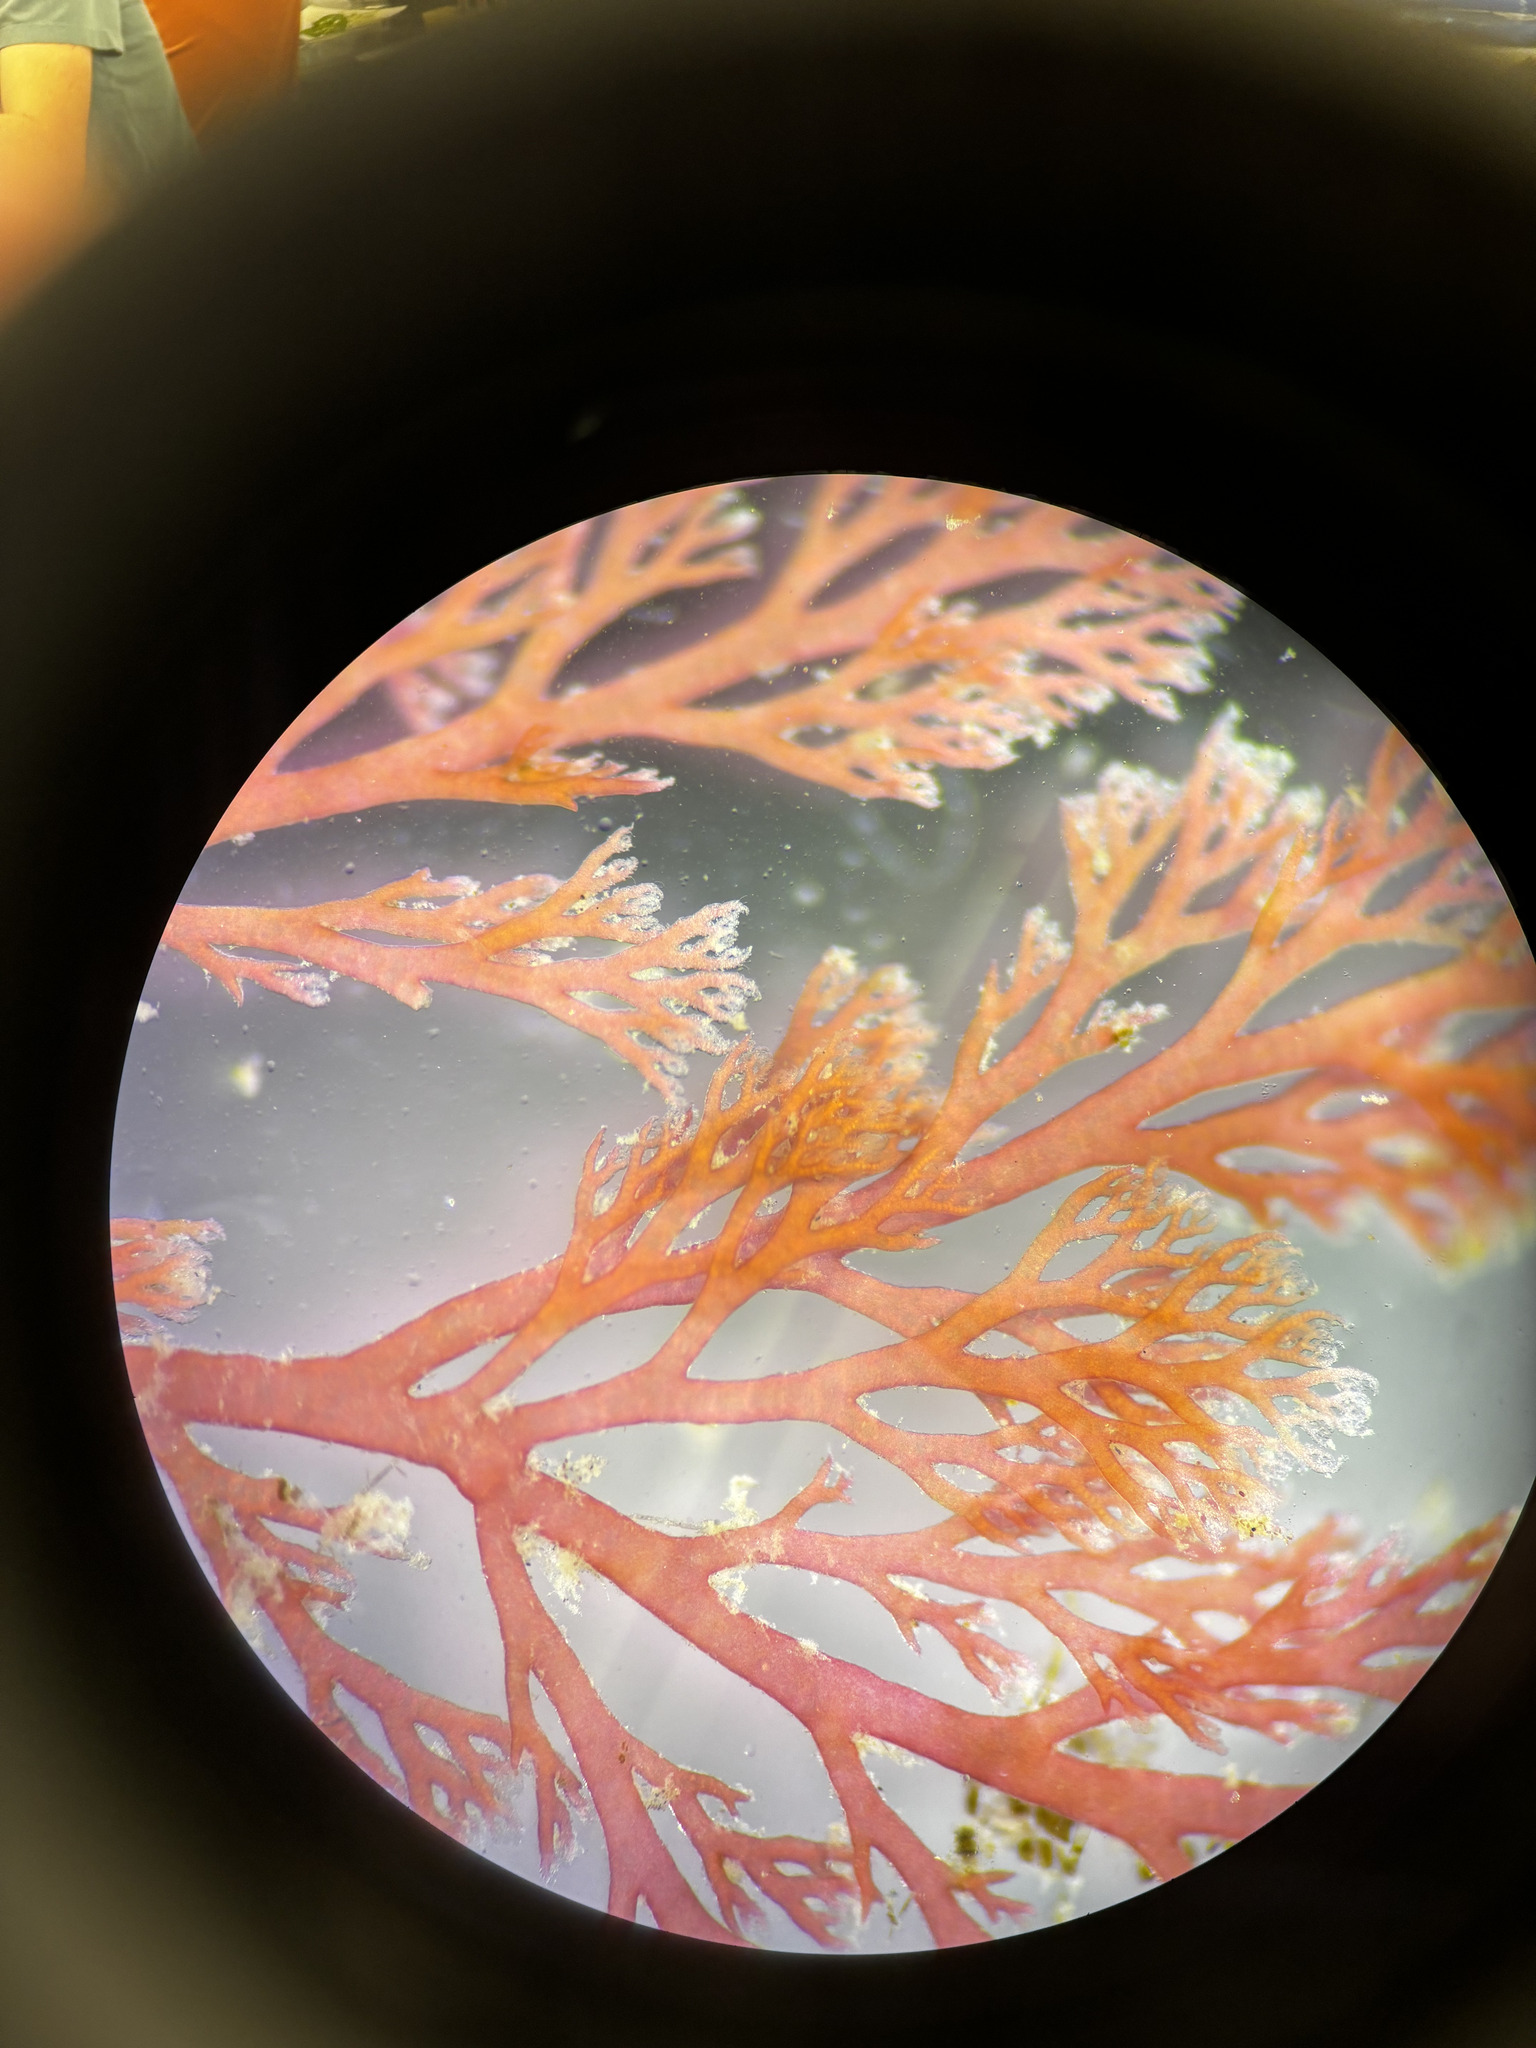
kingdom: Plantae
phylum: Rhodophyta
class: Florideophyceae
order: Ceramiales
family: Ceramiaceae
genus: Microcladia
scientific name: Microcladia coulteri
